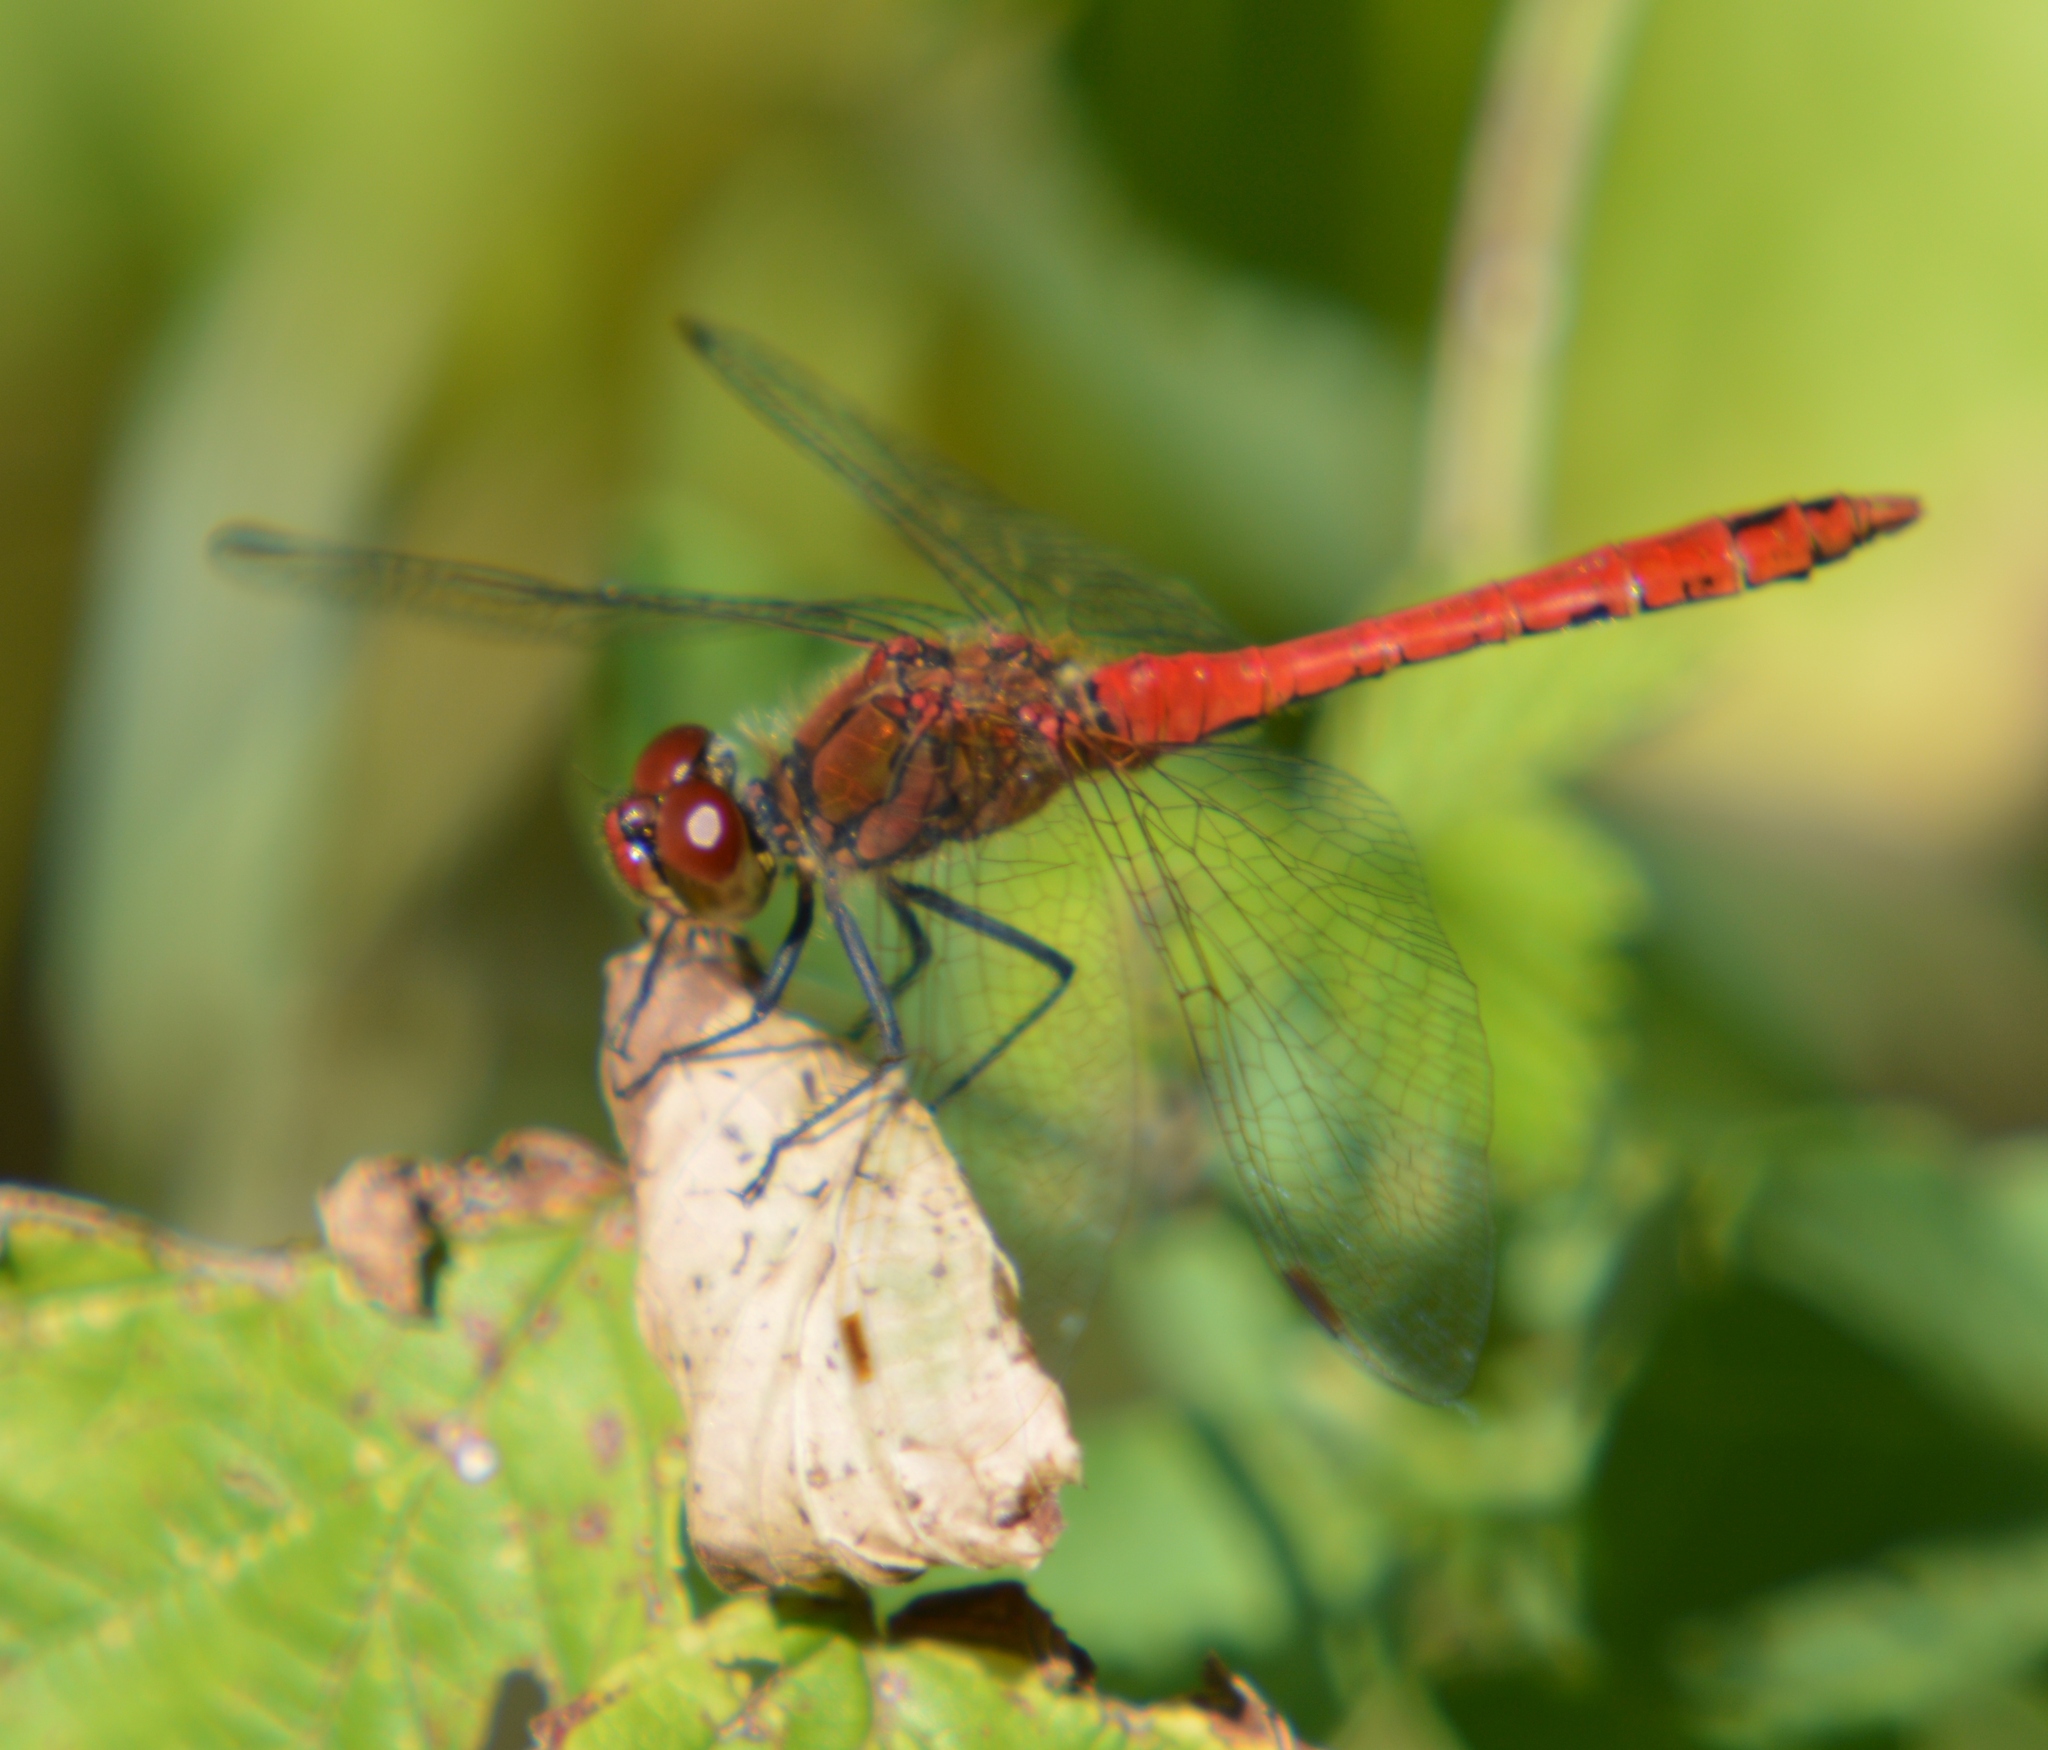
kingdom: Animalia
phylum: Arthropoda
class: Insecta
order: Odonata
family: Libellulidae
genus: Sympetrum
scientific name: Sympetrum sanguineum
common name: Ruddy darter
